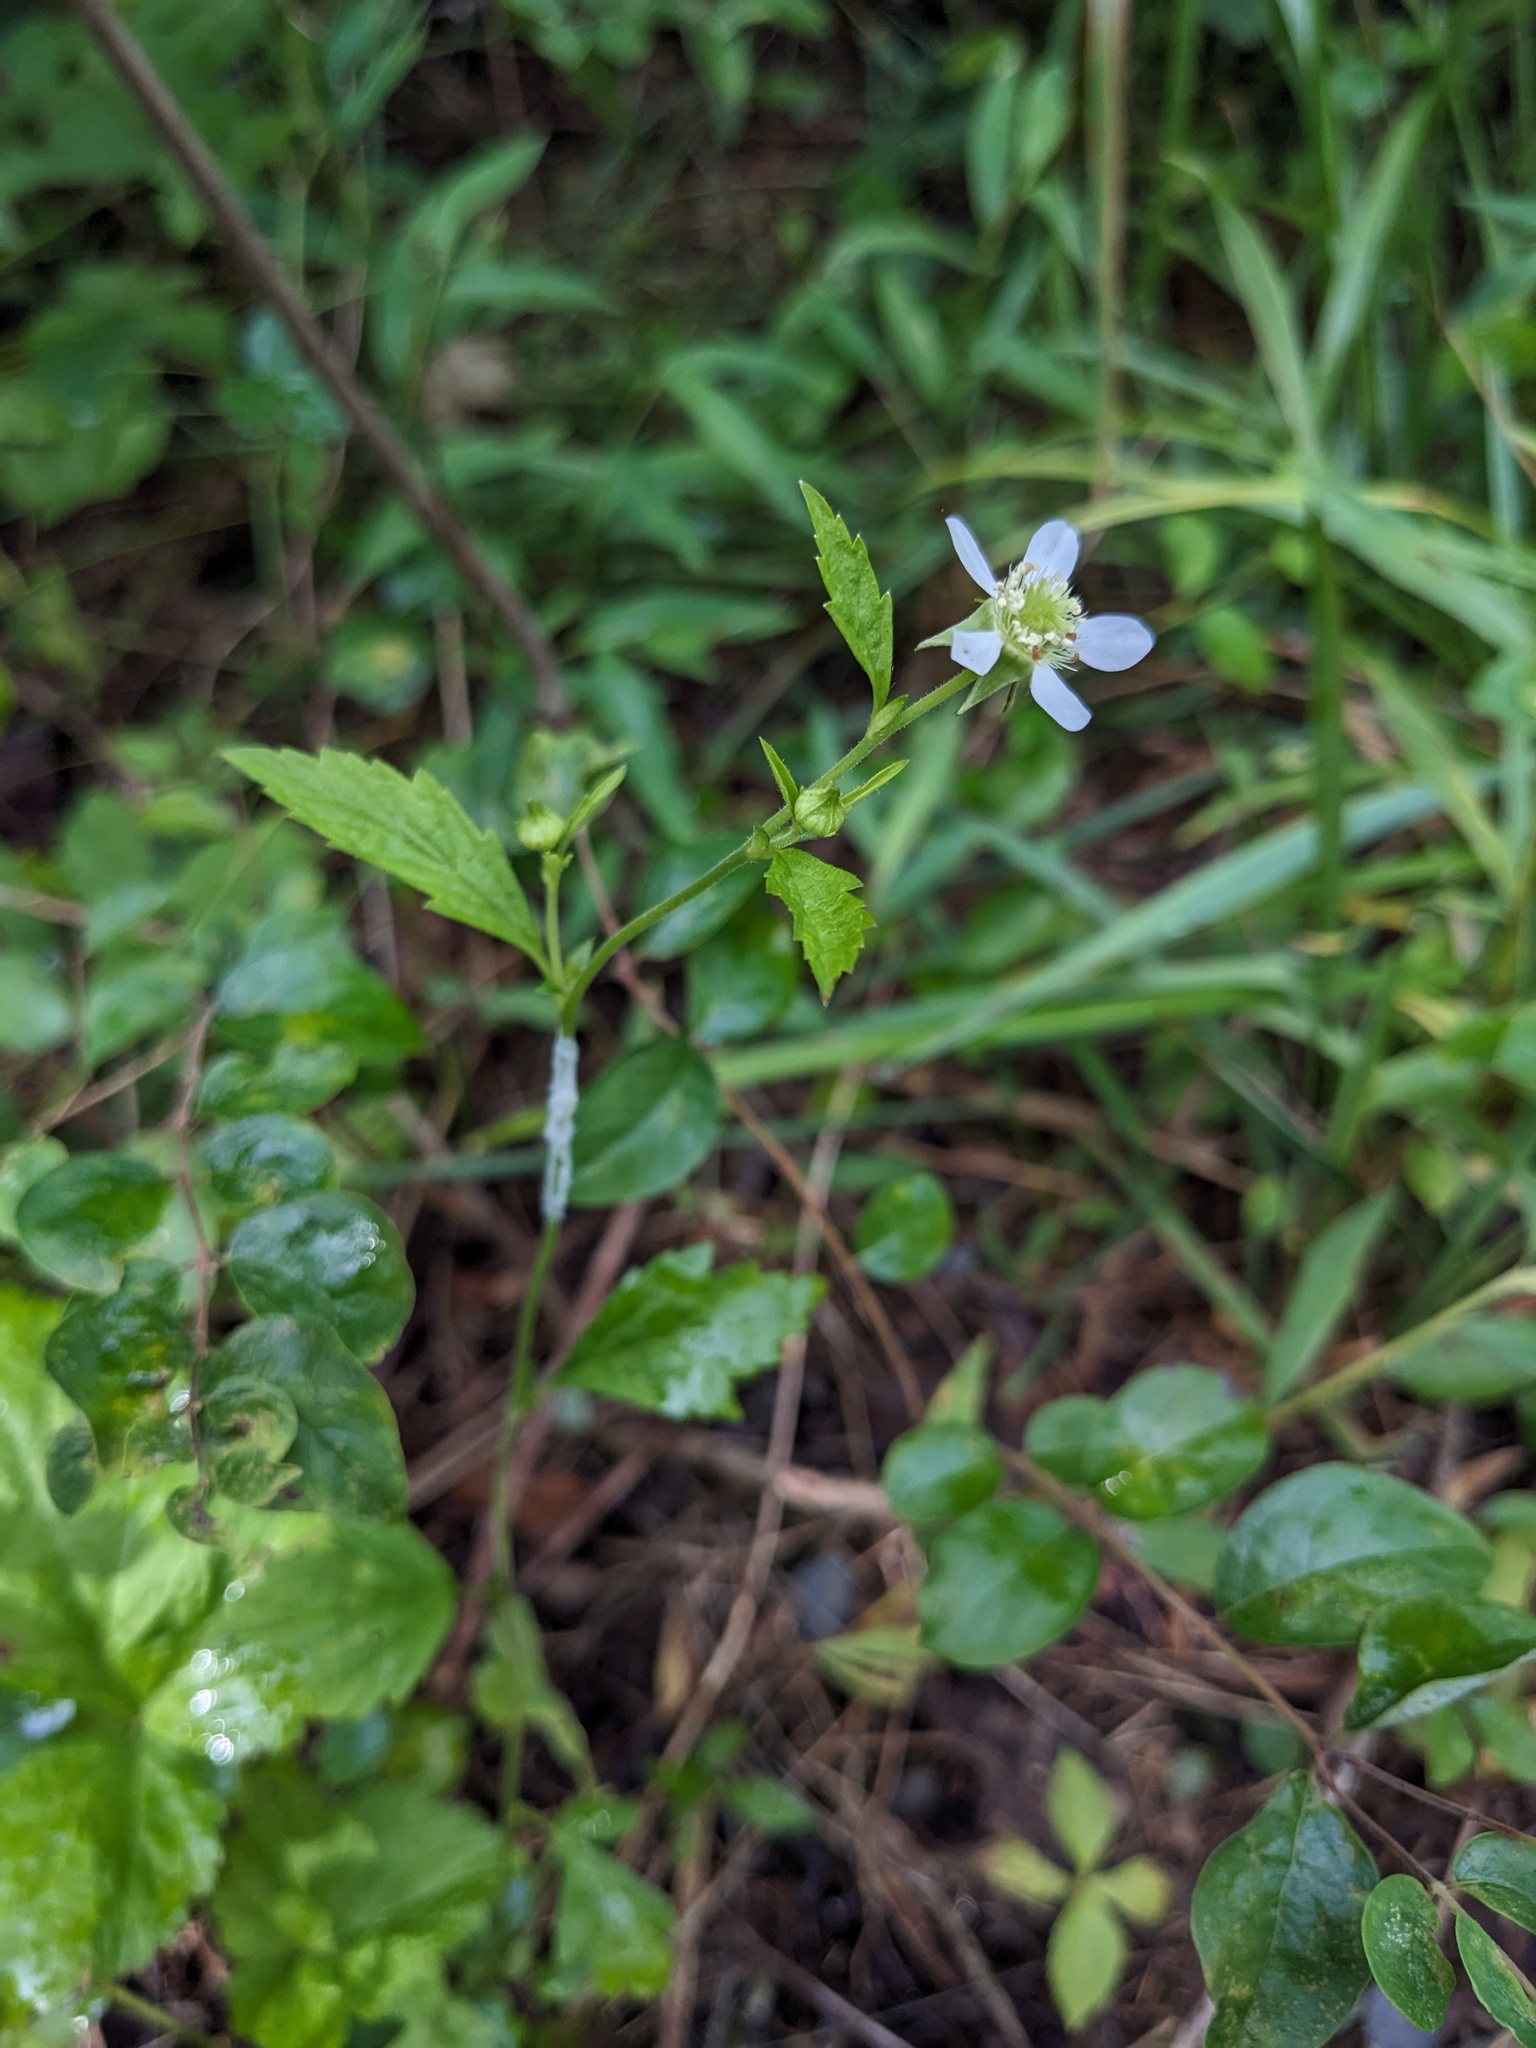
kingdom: Plantae
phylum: Tracheophyta
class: Magnoliopsida
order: Rosales
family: Rosaceae
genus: Geum
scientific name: Geum canadense
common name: White avens
